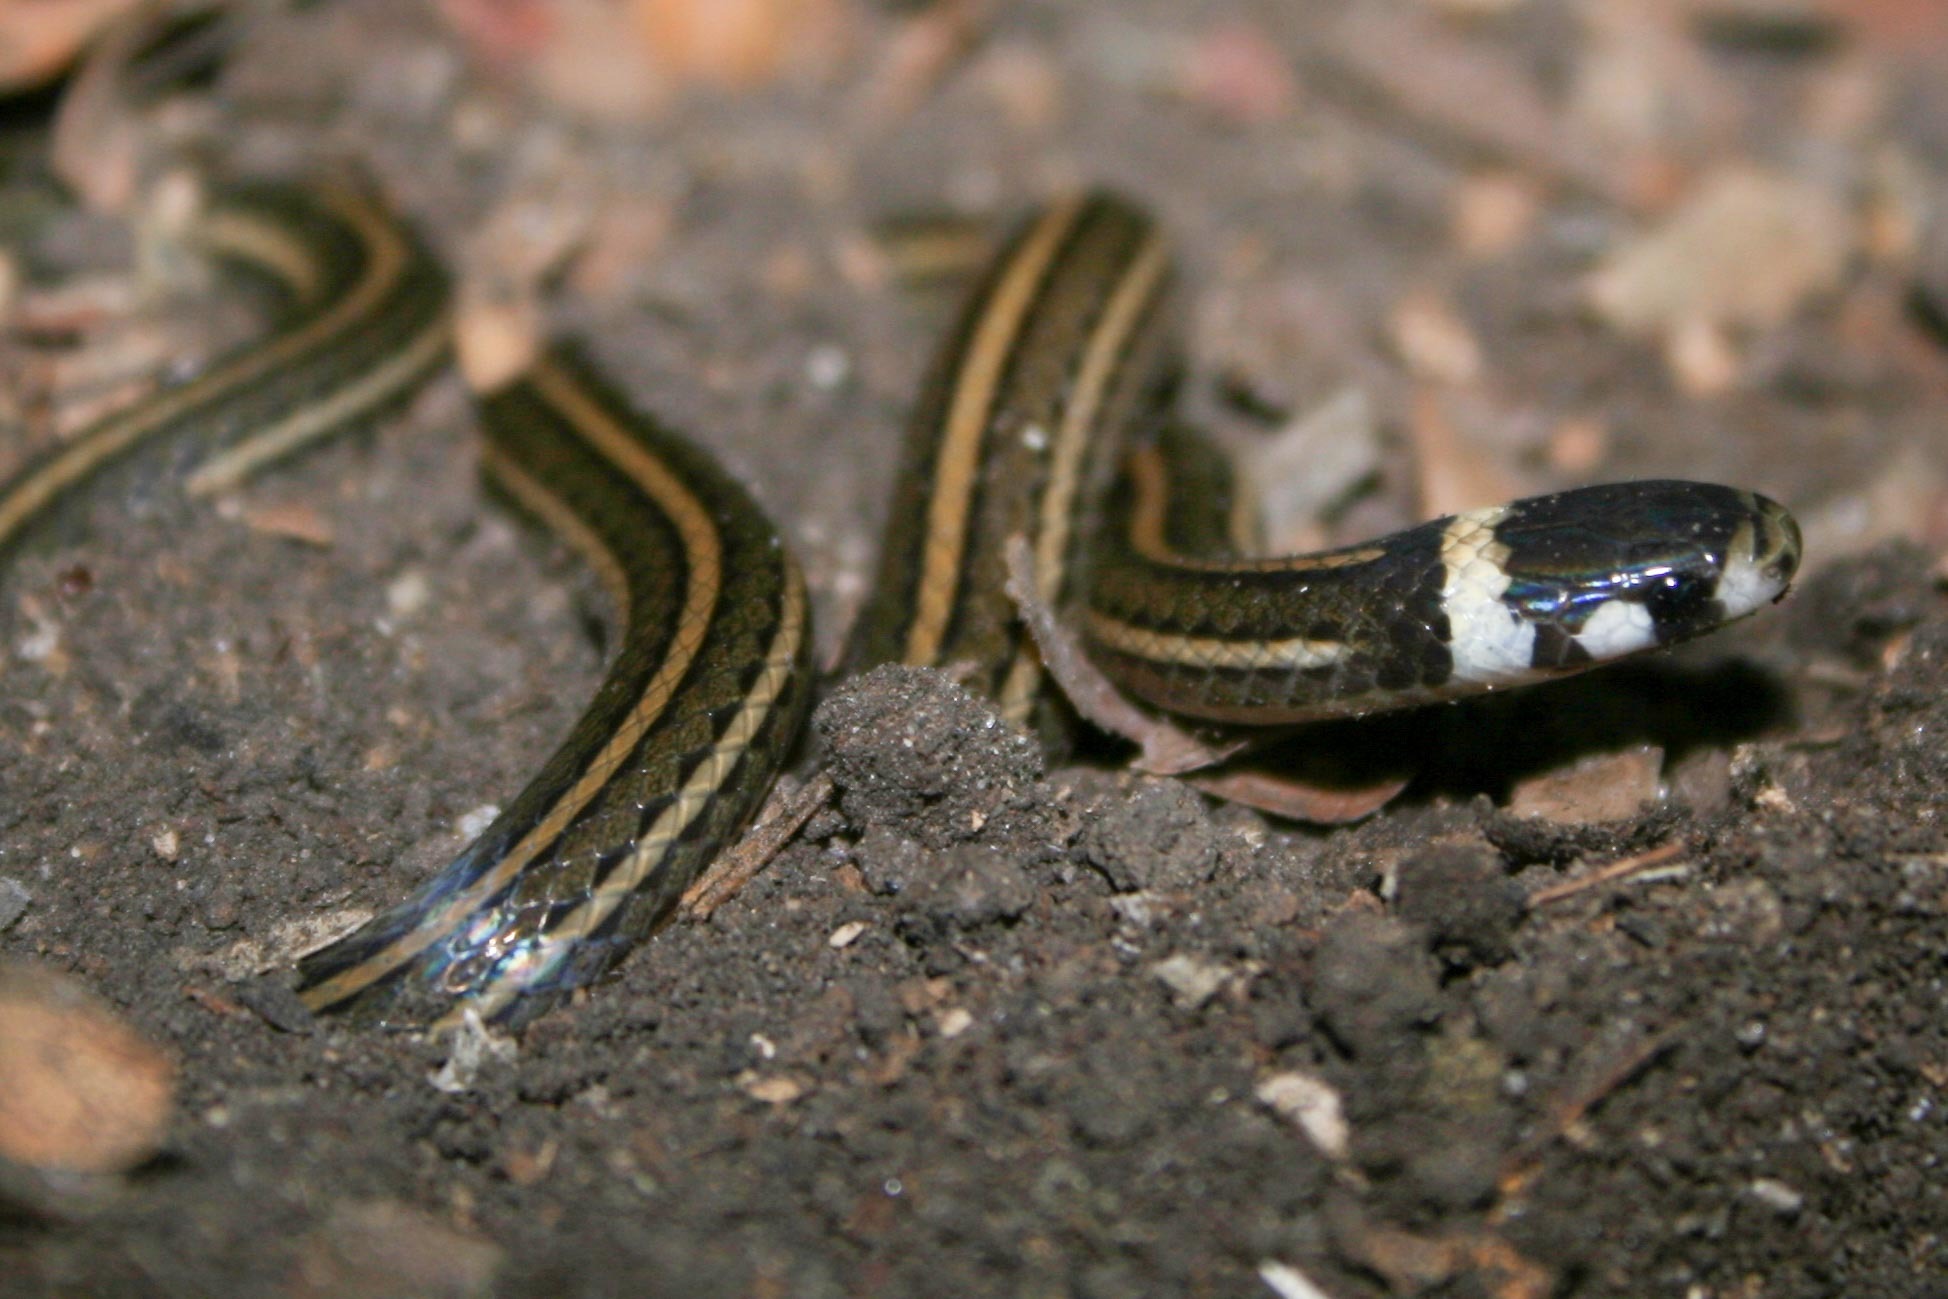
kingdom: Animalia
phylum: Chordata
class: Squamata
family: Colubridae
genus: Tantilla
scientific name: Tantilla taeniata
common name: Central american centipede snake
